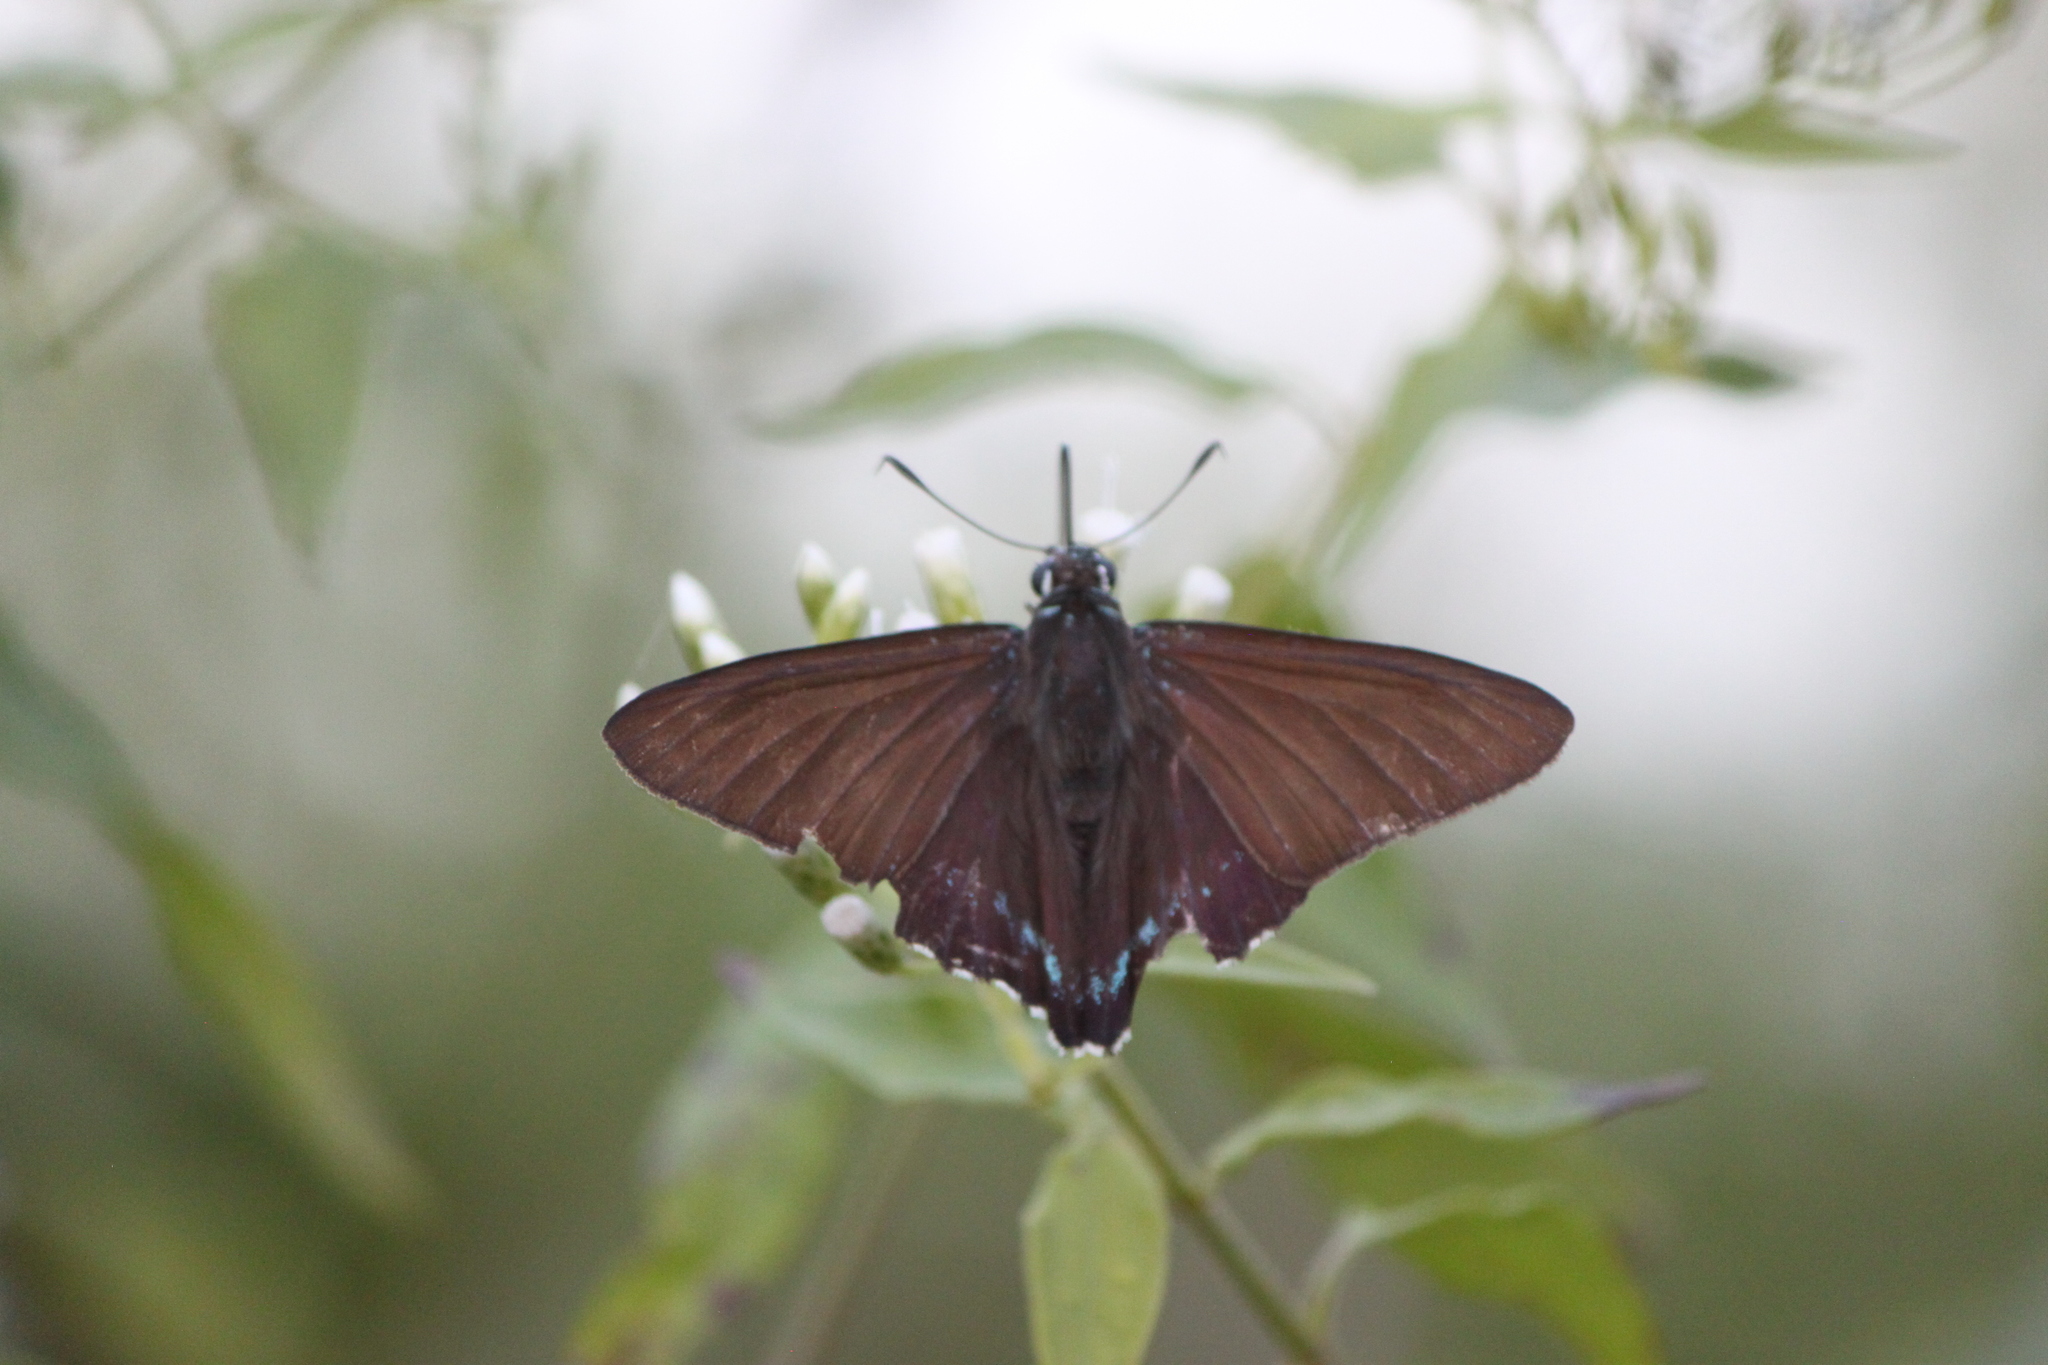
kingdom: Animalia
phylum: Arthropoda
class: Insecta
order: Lepidoptera
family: Hesperiidae
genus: Phocides
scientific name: Phocides pigmalion
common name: Mangrove skipper
